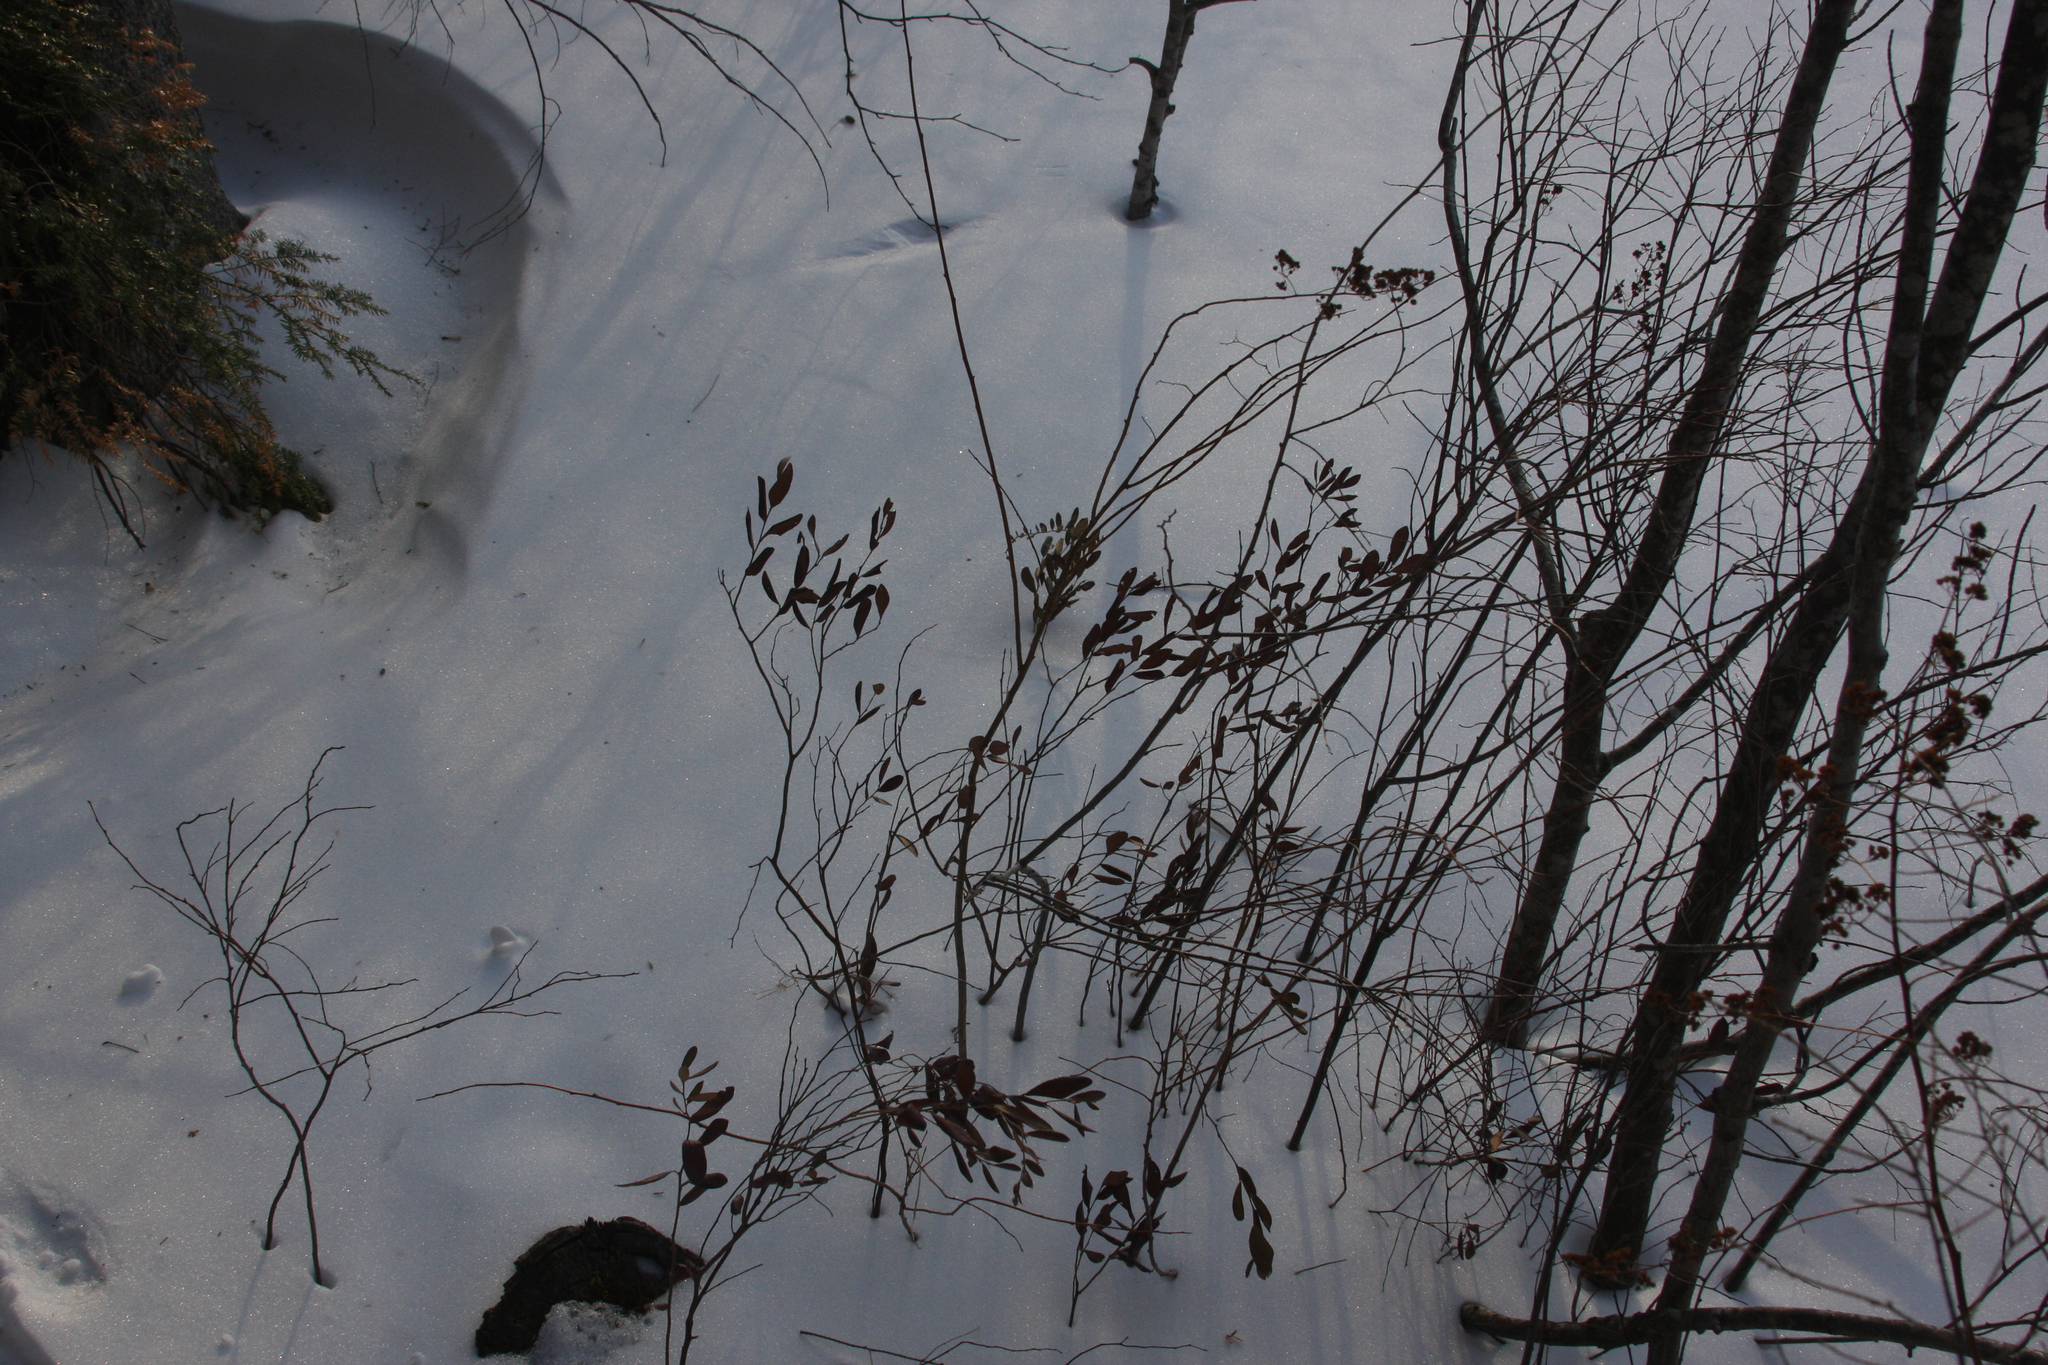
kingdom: Plantae
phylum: Tracheophyta
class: Magnoliopsida
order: Ericales
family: Ericaceae
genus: Chamaedaphne
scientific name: Chamaedaphne calyculata
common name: Leatherleaf
